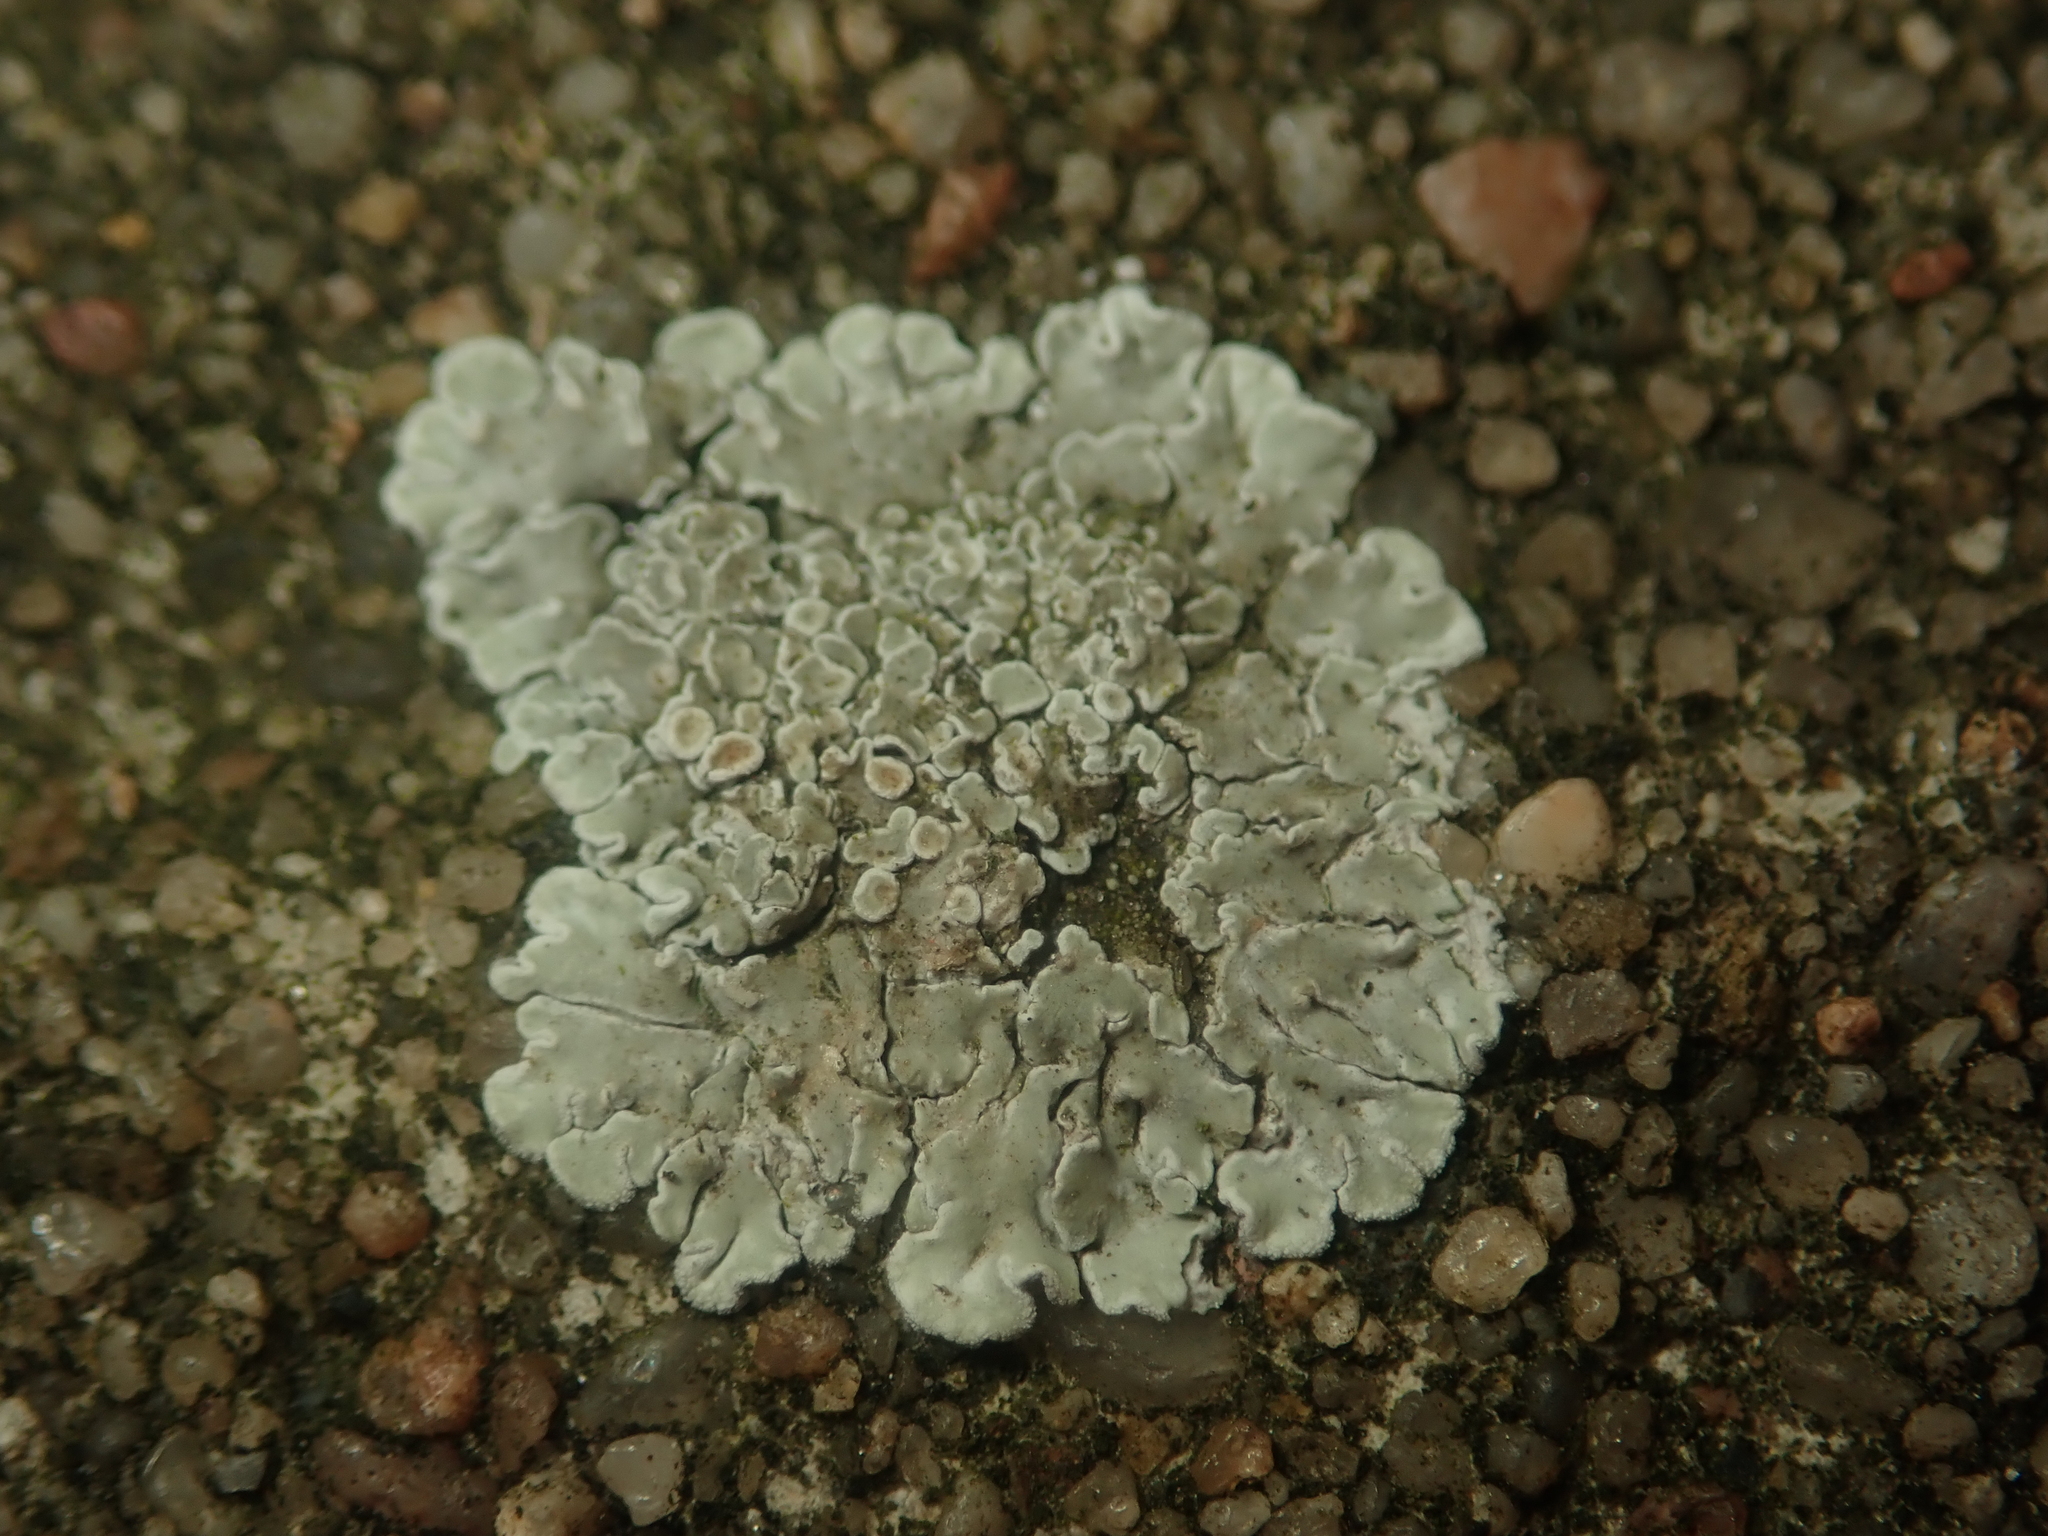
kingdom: Fungi
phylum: Ascomycota
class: Lecanoromycetes
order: Lecanorales
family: Lecanoraceae
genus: Protoparmeliopsis
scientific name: Protoparmeliopsis muralis
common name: Stonewall rim lichen
